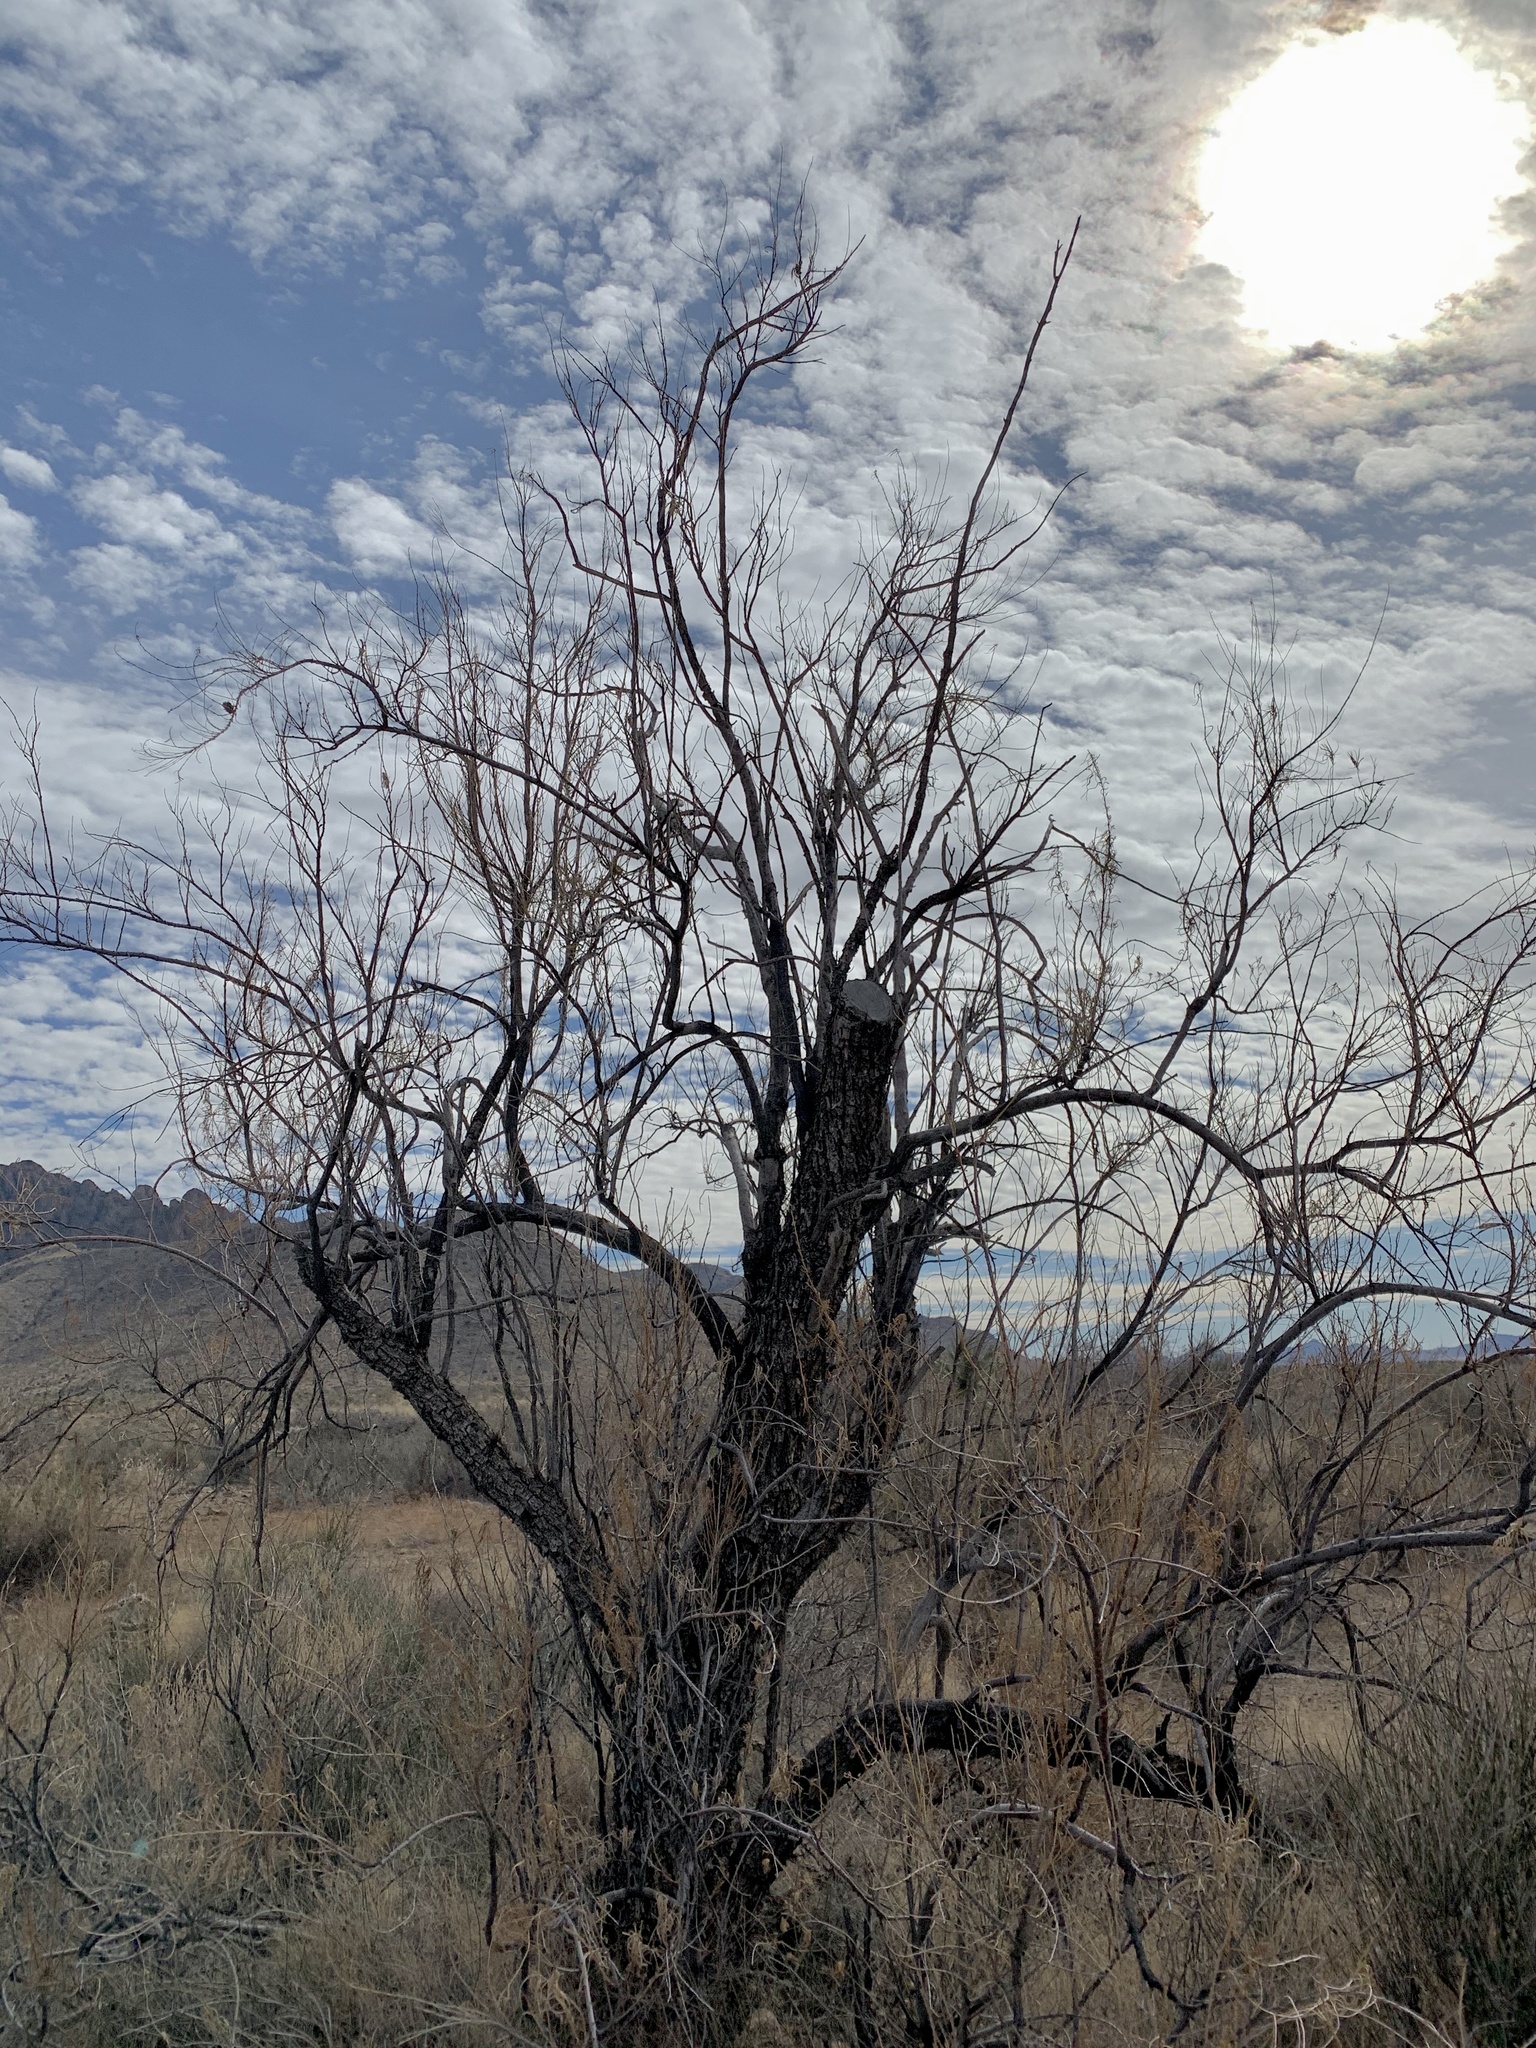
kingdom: Plantae
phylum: Tracheophyta
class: Magnoliopsida
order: Lamiales
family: Bignoniaceae
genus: Chilopsis
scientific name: Chilopsis linearis
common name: Desert-willow
